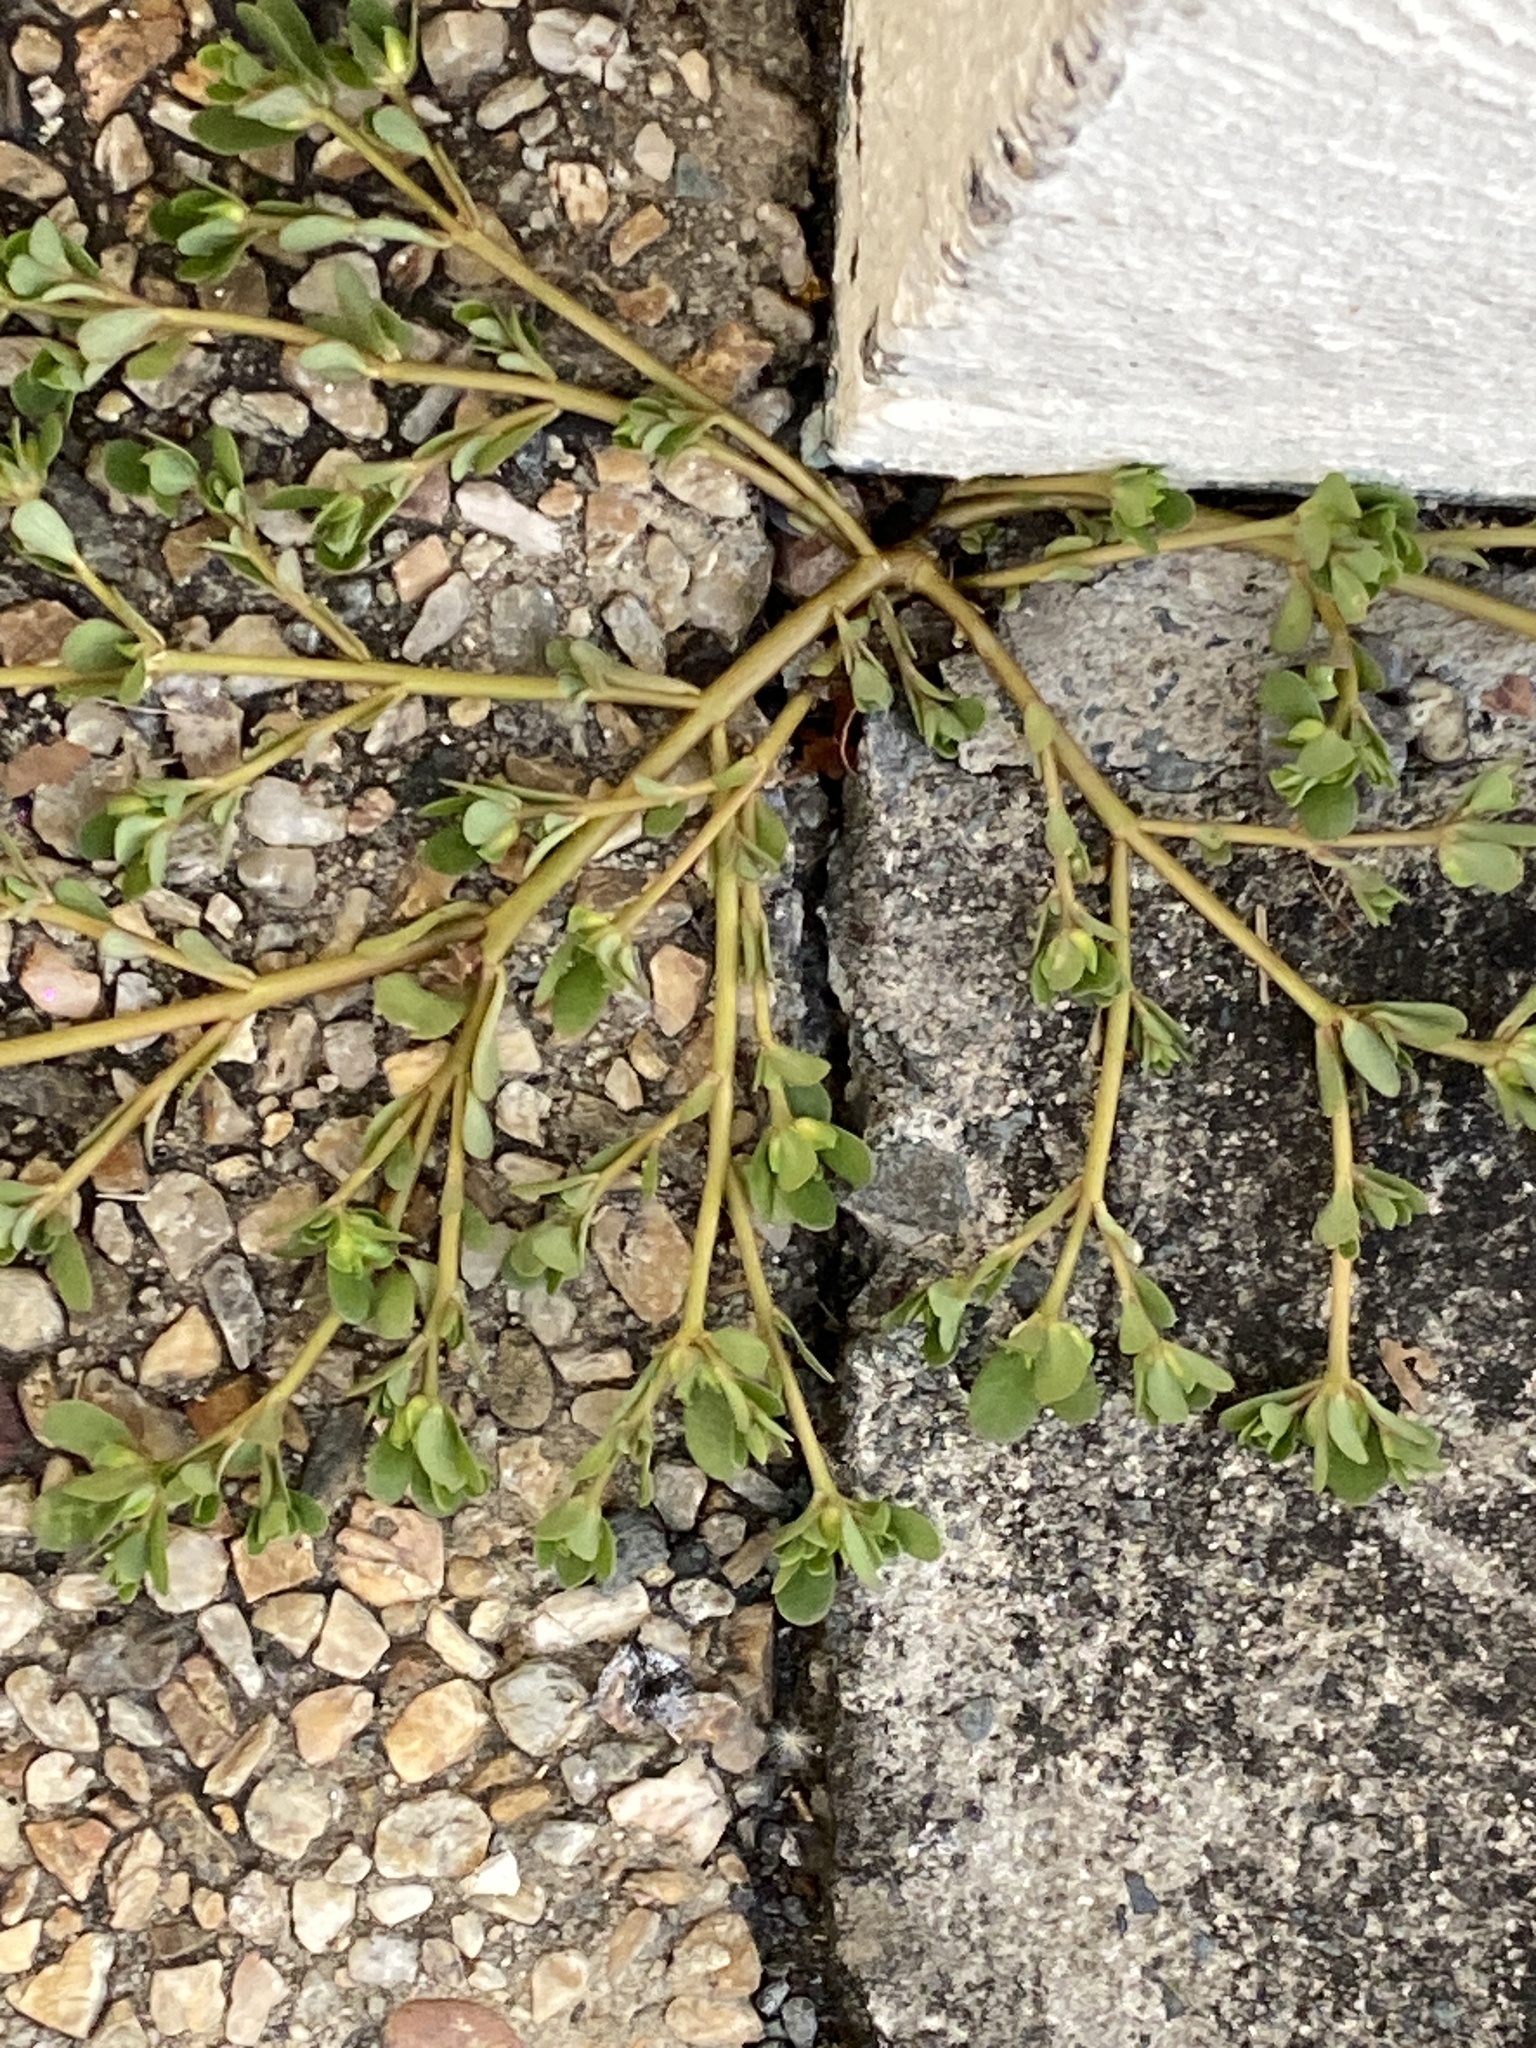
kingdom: Plantae
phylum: Tracheophyta
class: Magnoliopsida
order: Caryophyllales
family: Portulacaceae
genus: Portulaca
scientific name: Portulaca oleracea
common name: Common purslane
